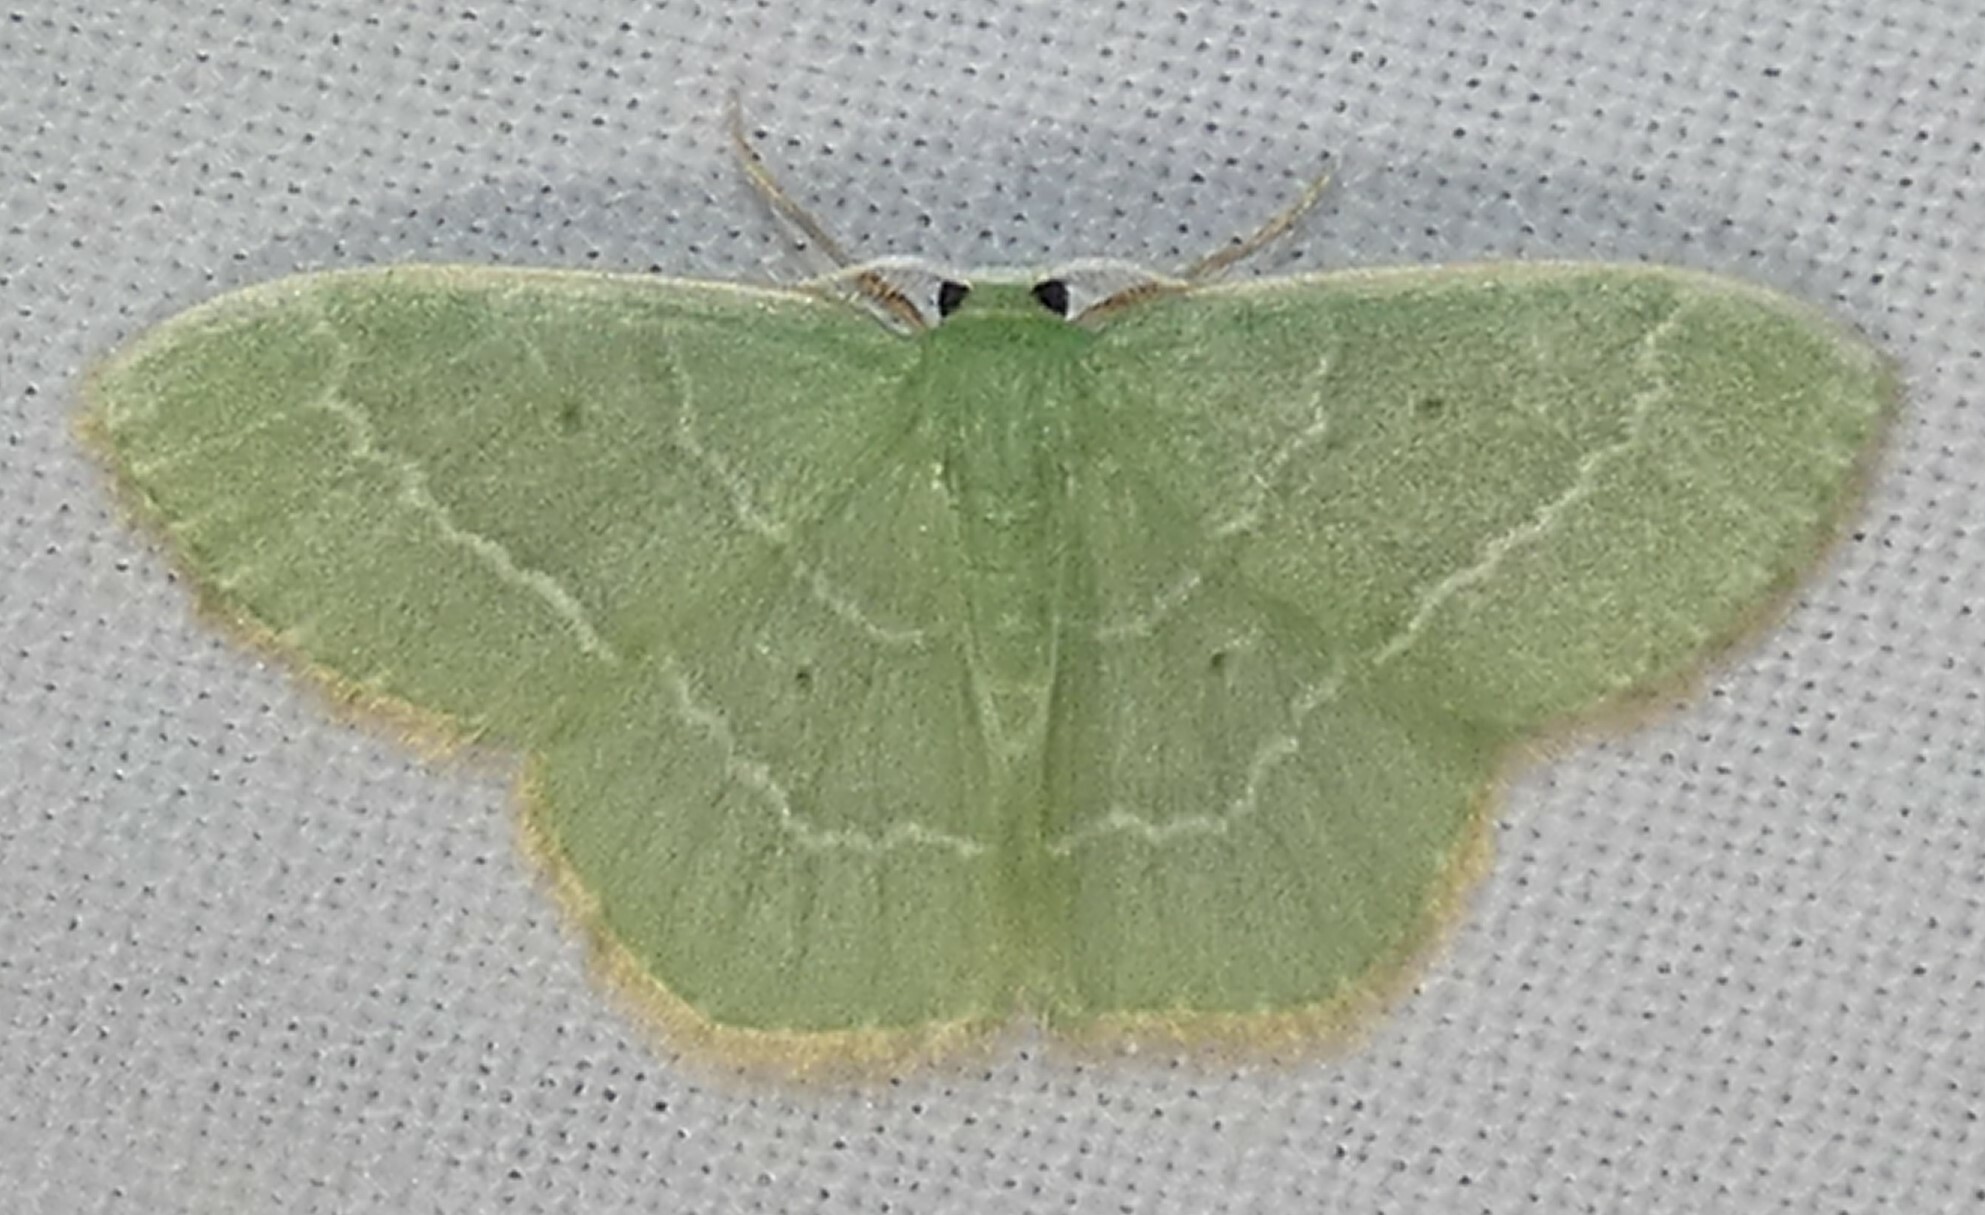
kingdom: Animalia
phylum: Arthropoda
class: Insecta
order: Lepidoptera
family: Geometridae
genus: Nemoria
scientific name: Nemoria elfa
